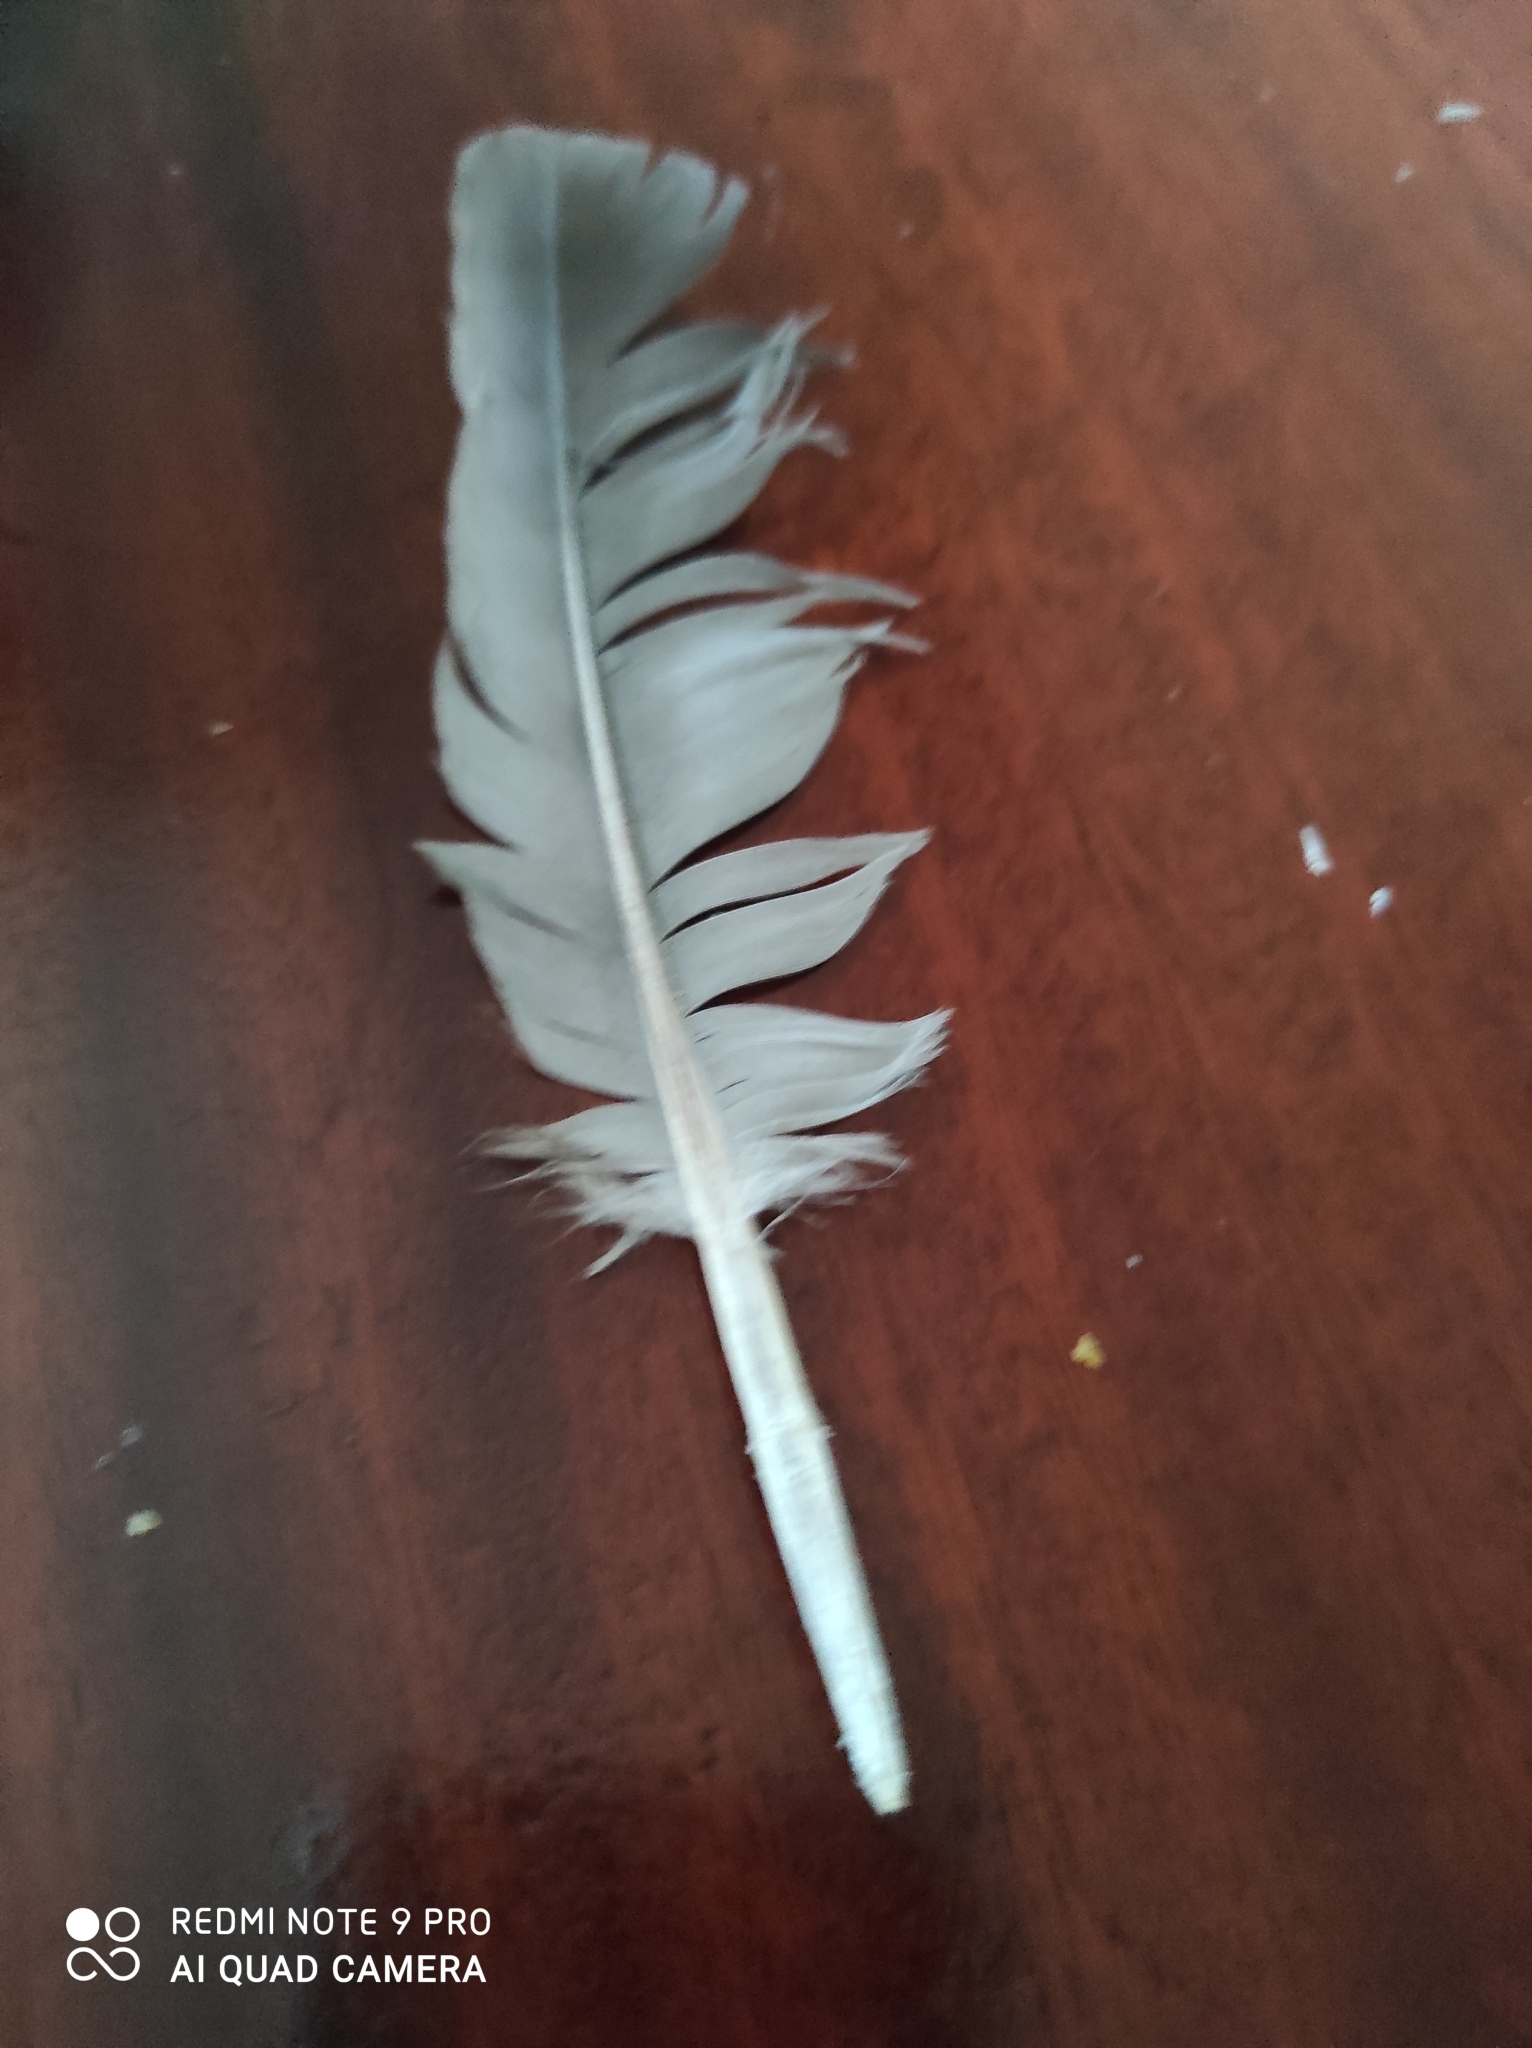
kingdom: Animalia
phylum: Chordata
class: Aves
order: Columbiformes
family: Columbidae
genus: Columba
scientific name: Columba palumbus
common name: Common wood pigeon
